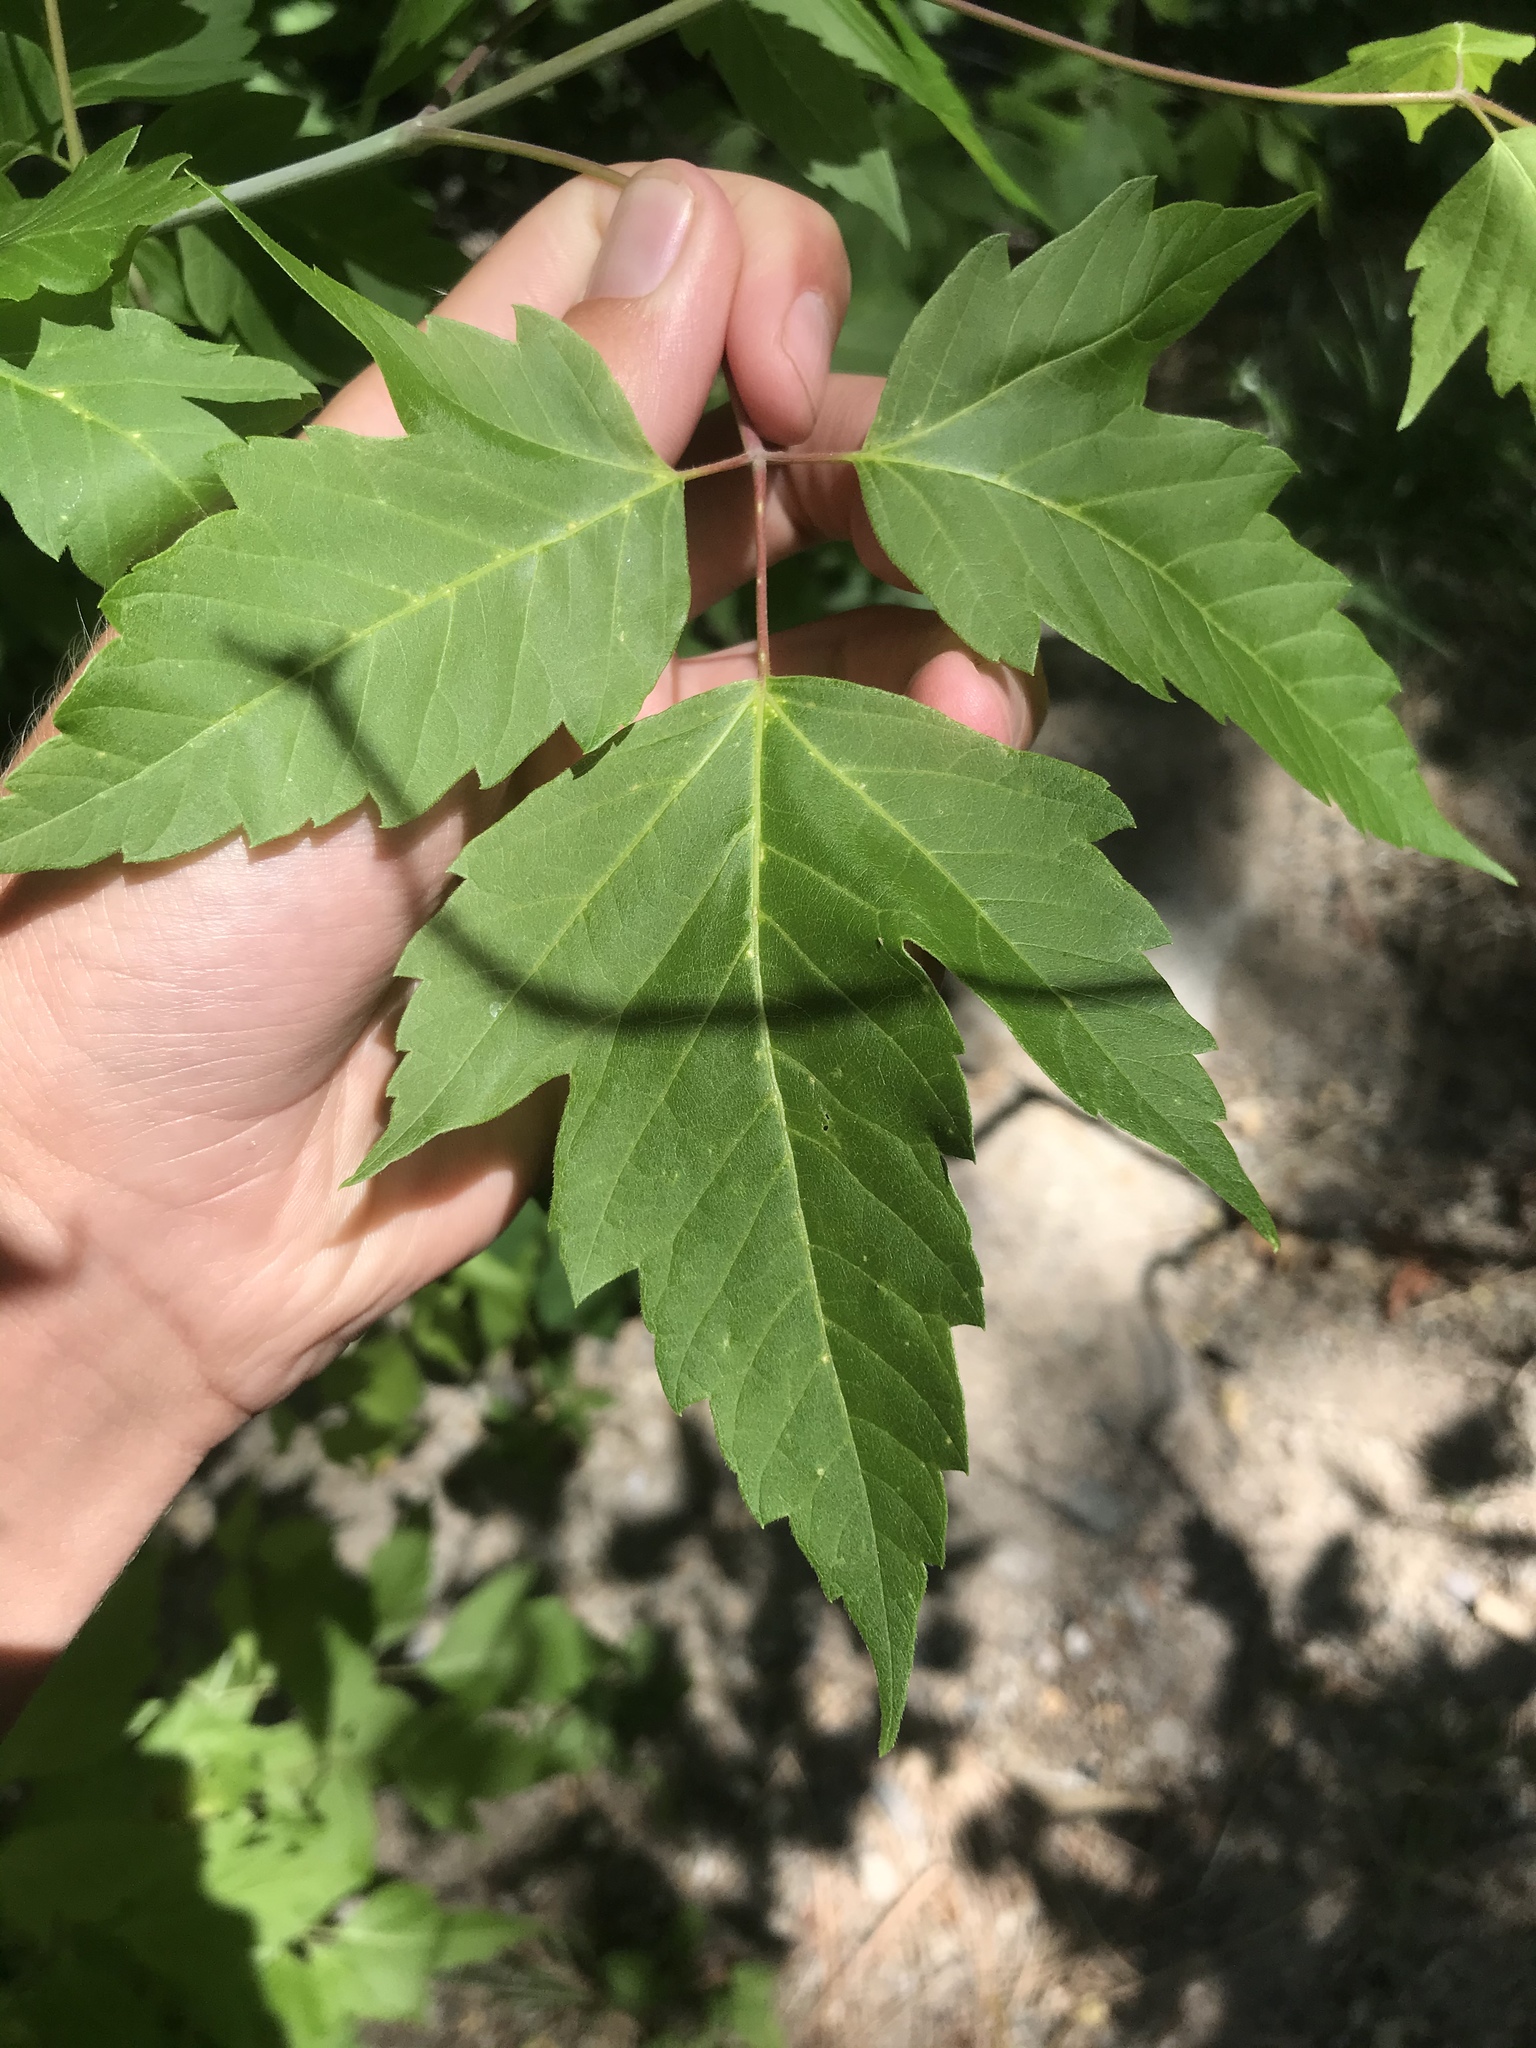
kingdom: Plantae
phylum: Tracheophyta
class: Magnoliopsida
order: Sapindales
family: Sapindaceae
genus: Acer
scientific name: Acer negundo
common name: Ashleaf maple
